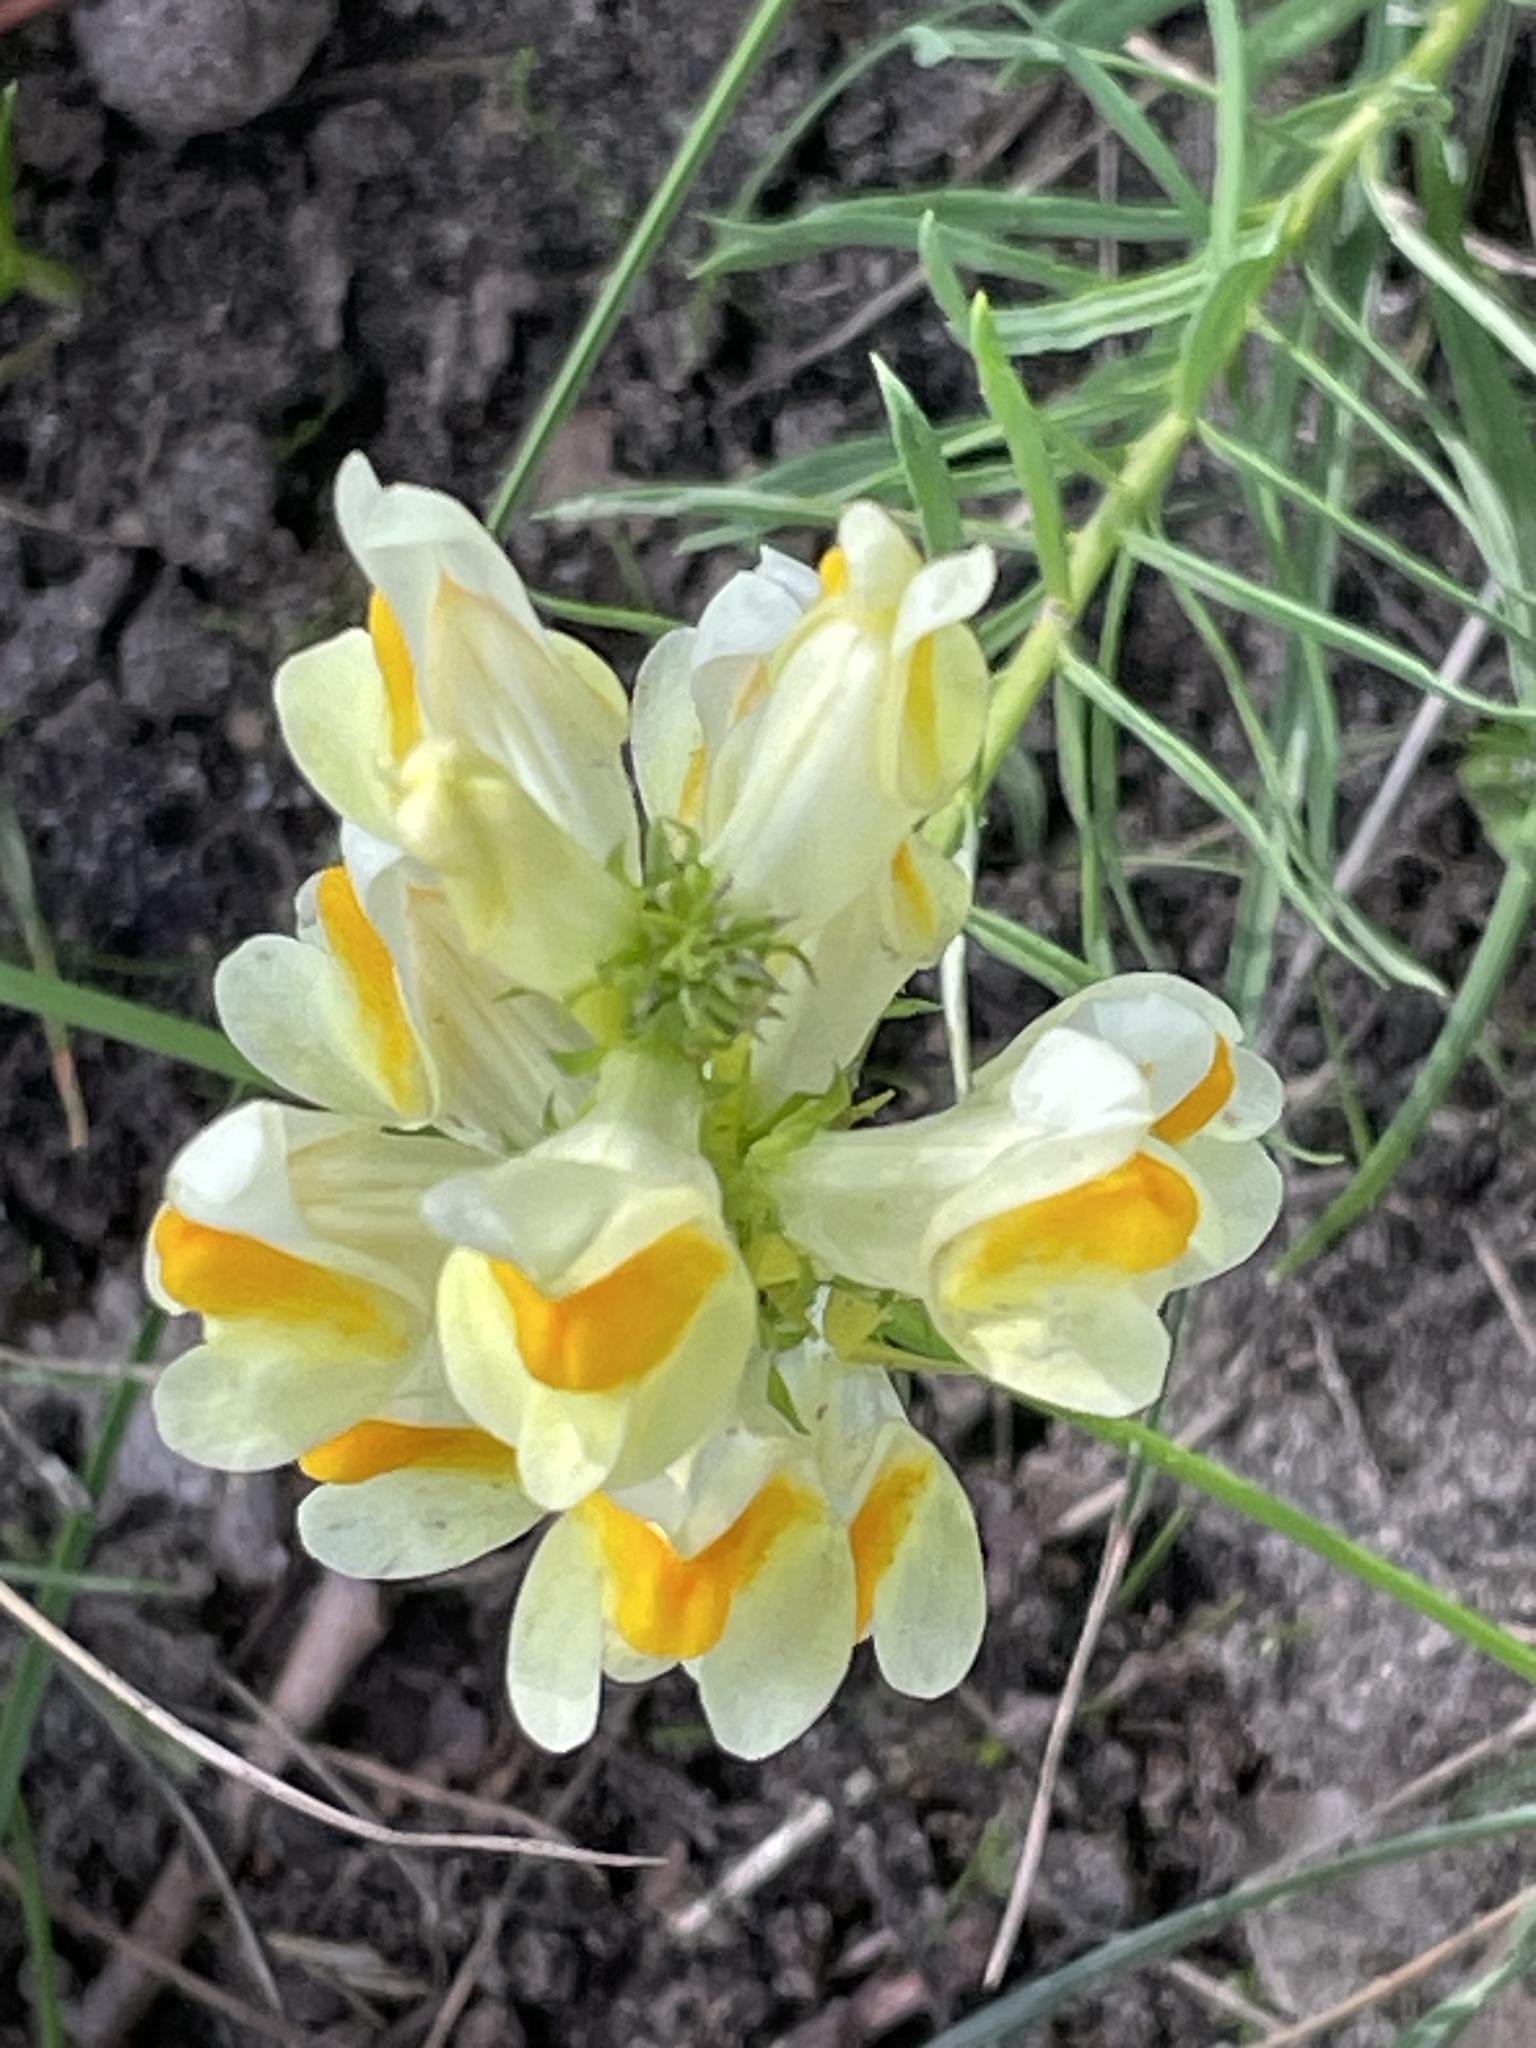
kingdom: Plantae
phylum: Tracheophyta
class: Magnoliopsida
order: Lamiales
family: Plantaginaceae
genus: Linaria
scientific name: Linaria vulgaris
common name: Butter and eggs
